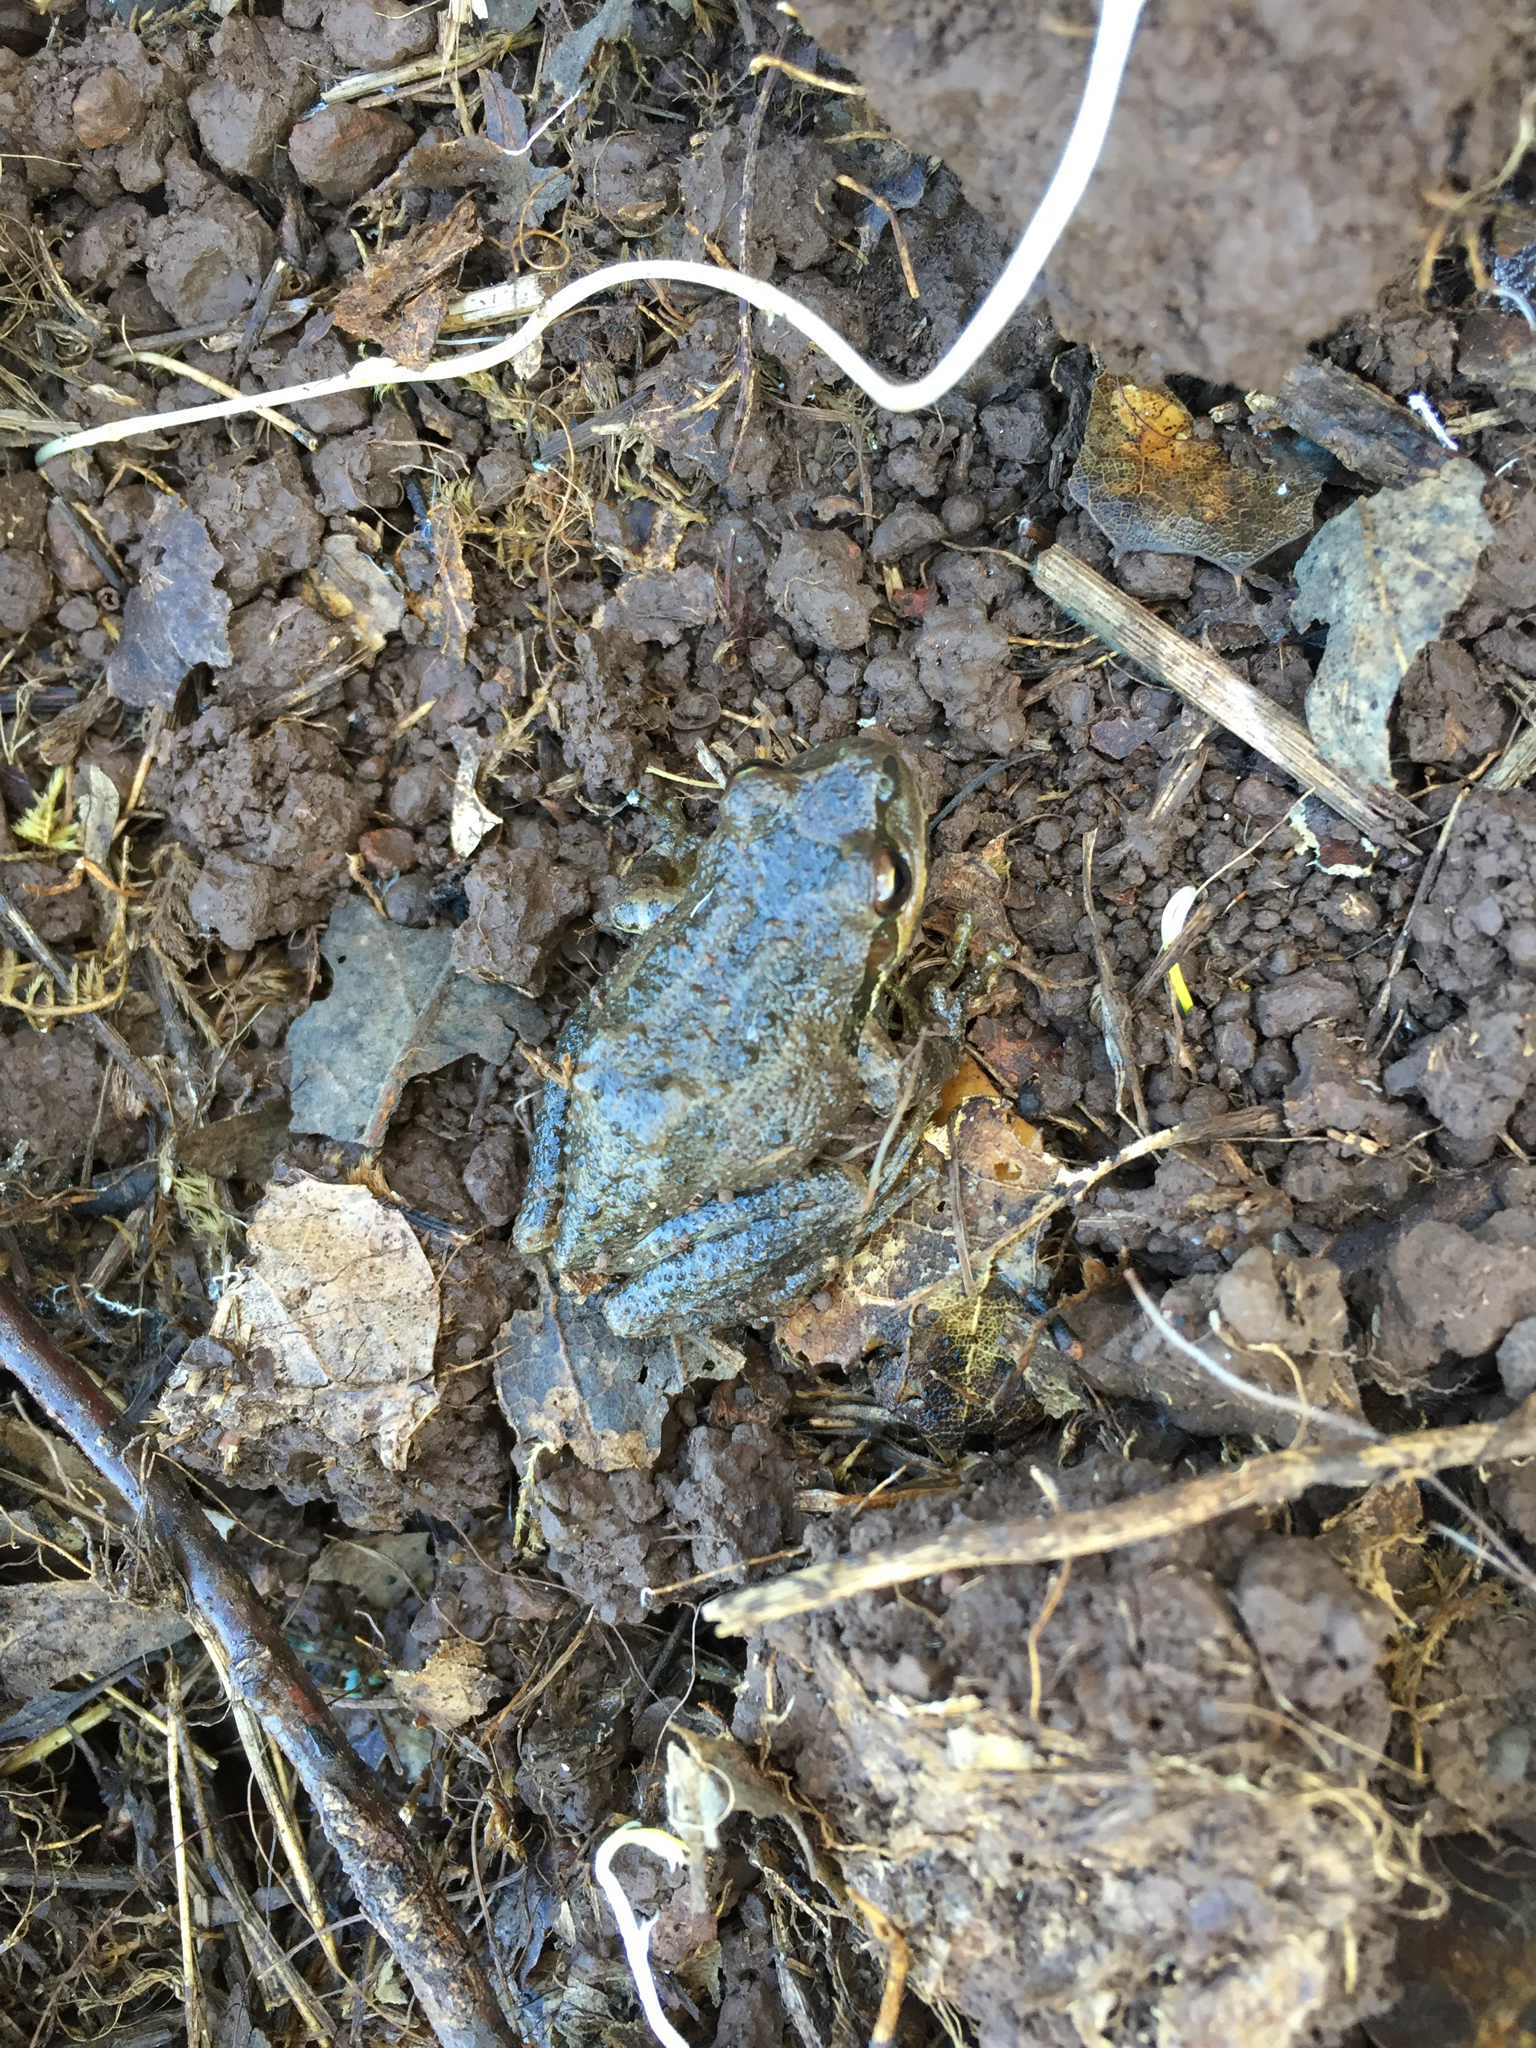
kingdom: Animalia
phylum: Chordata
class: Amphibia
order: Anura
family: Hylidae
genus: Pseudacris
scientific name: Pseudacris regilla
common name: Pacific chorus frog
